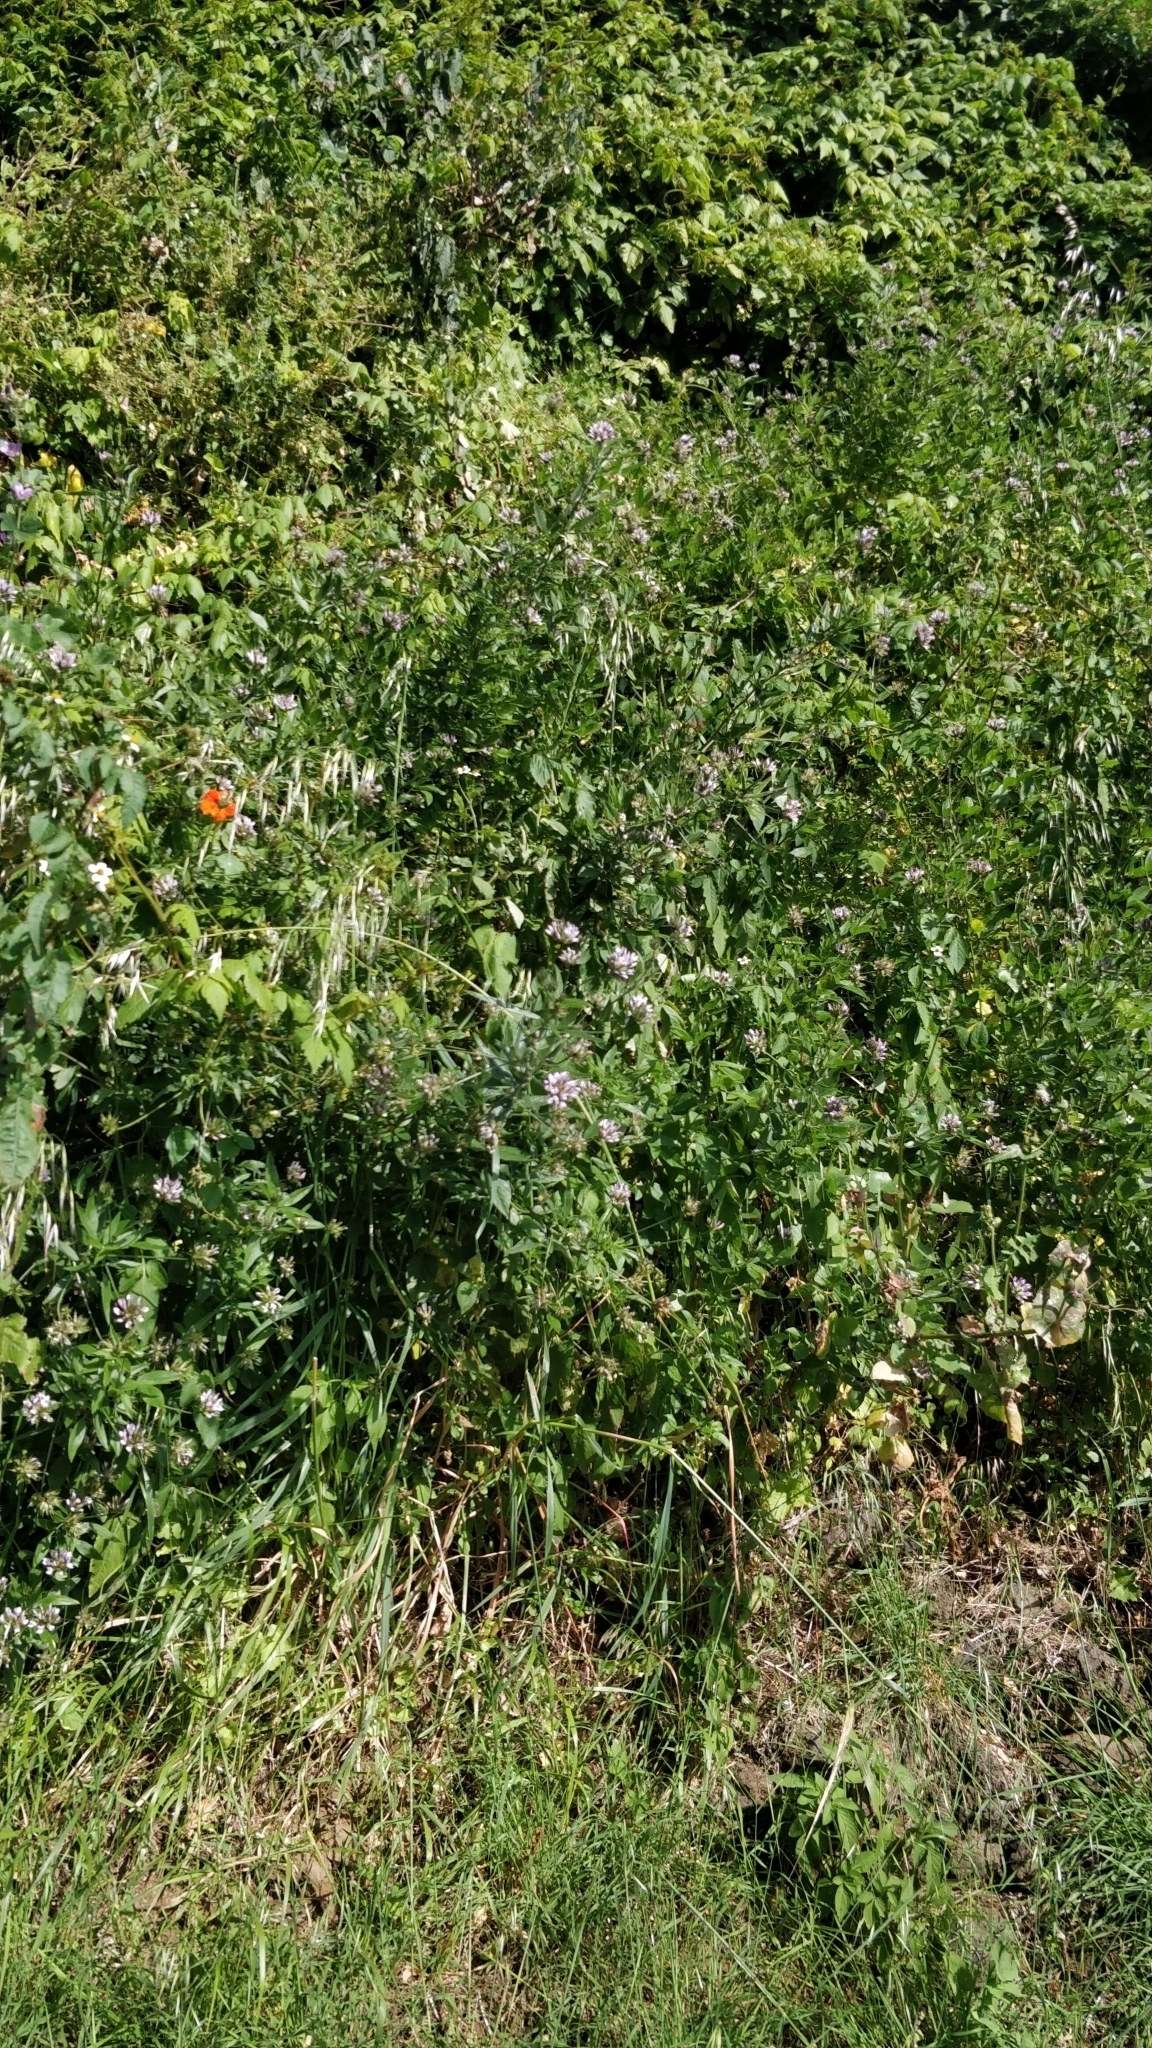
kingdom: Plantae
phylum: Tracheophyta
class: Magnoliopsida
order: Fabales
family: Fabaceae
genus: Bituminaria
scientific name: Bituminaria bituminosa
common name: Arabian pea
